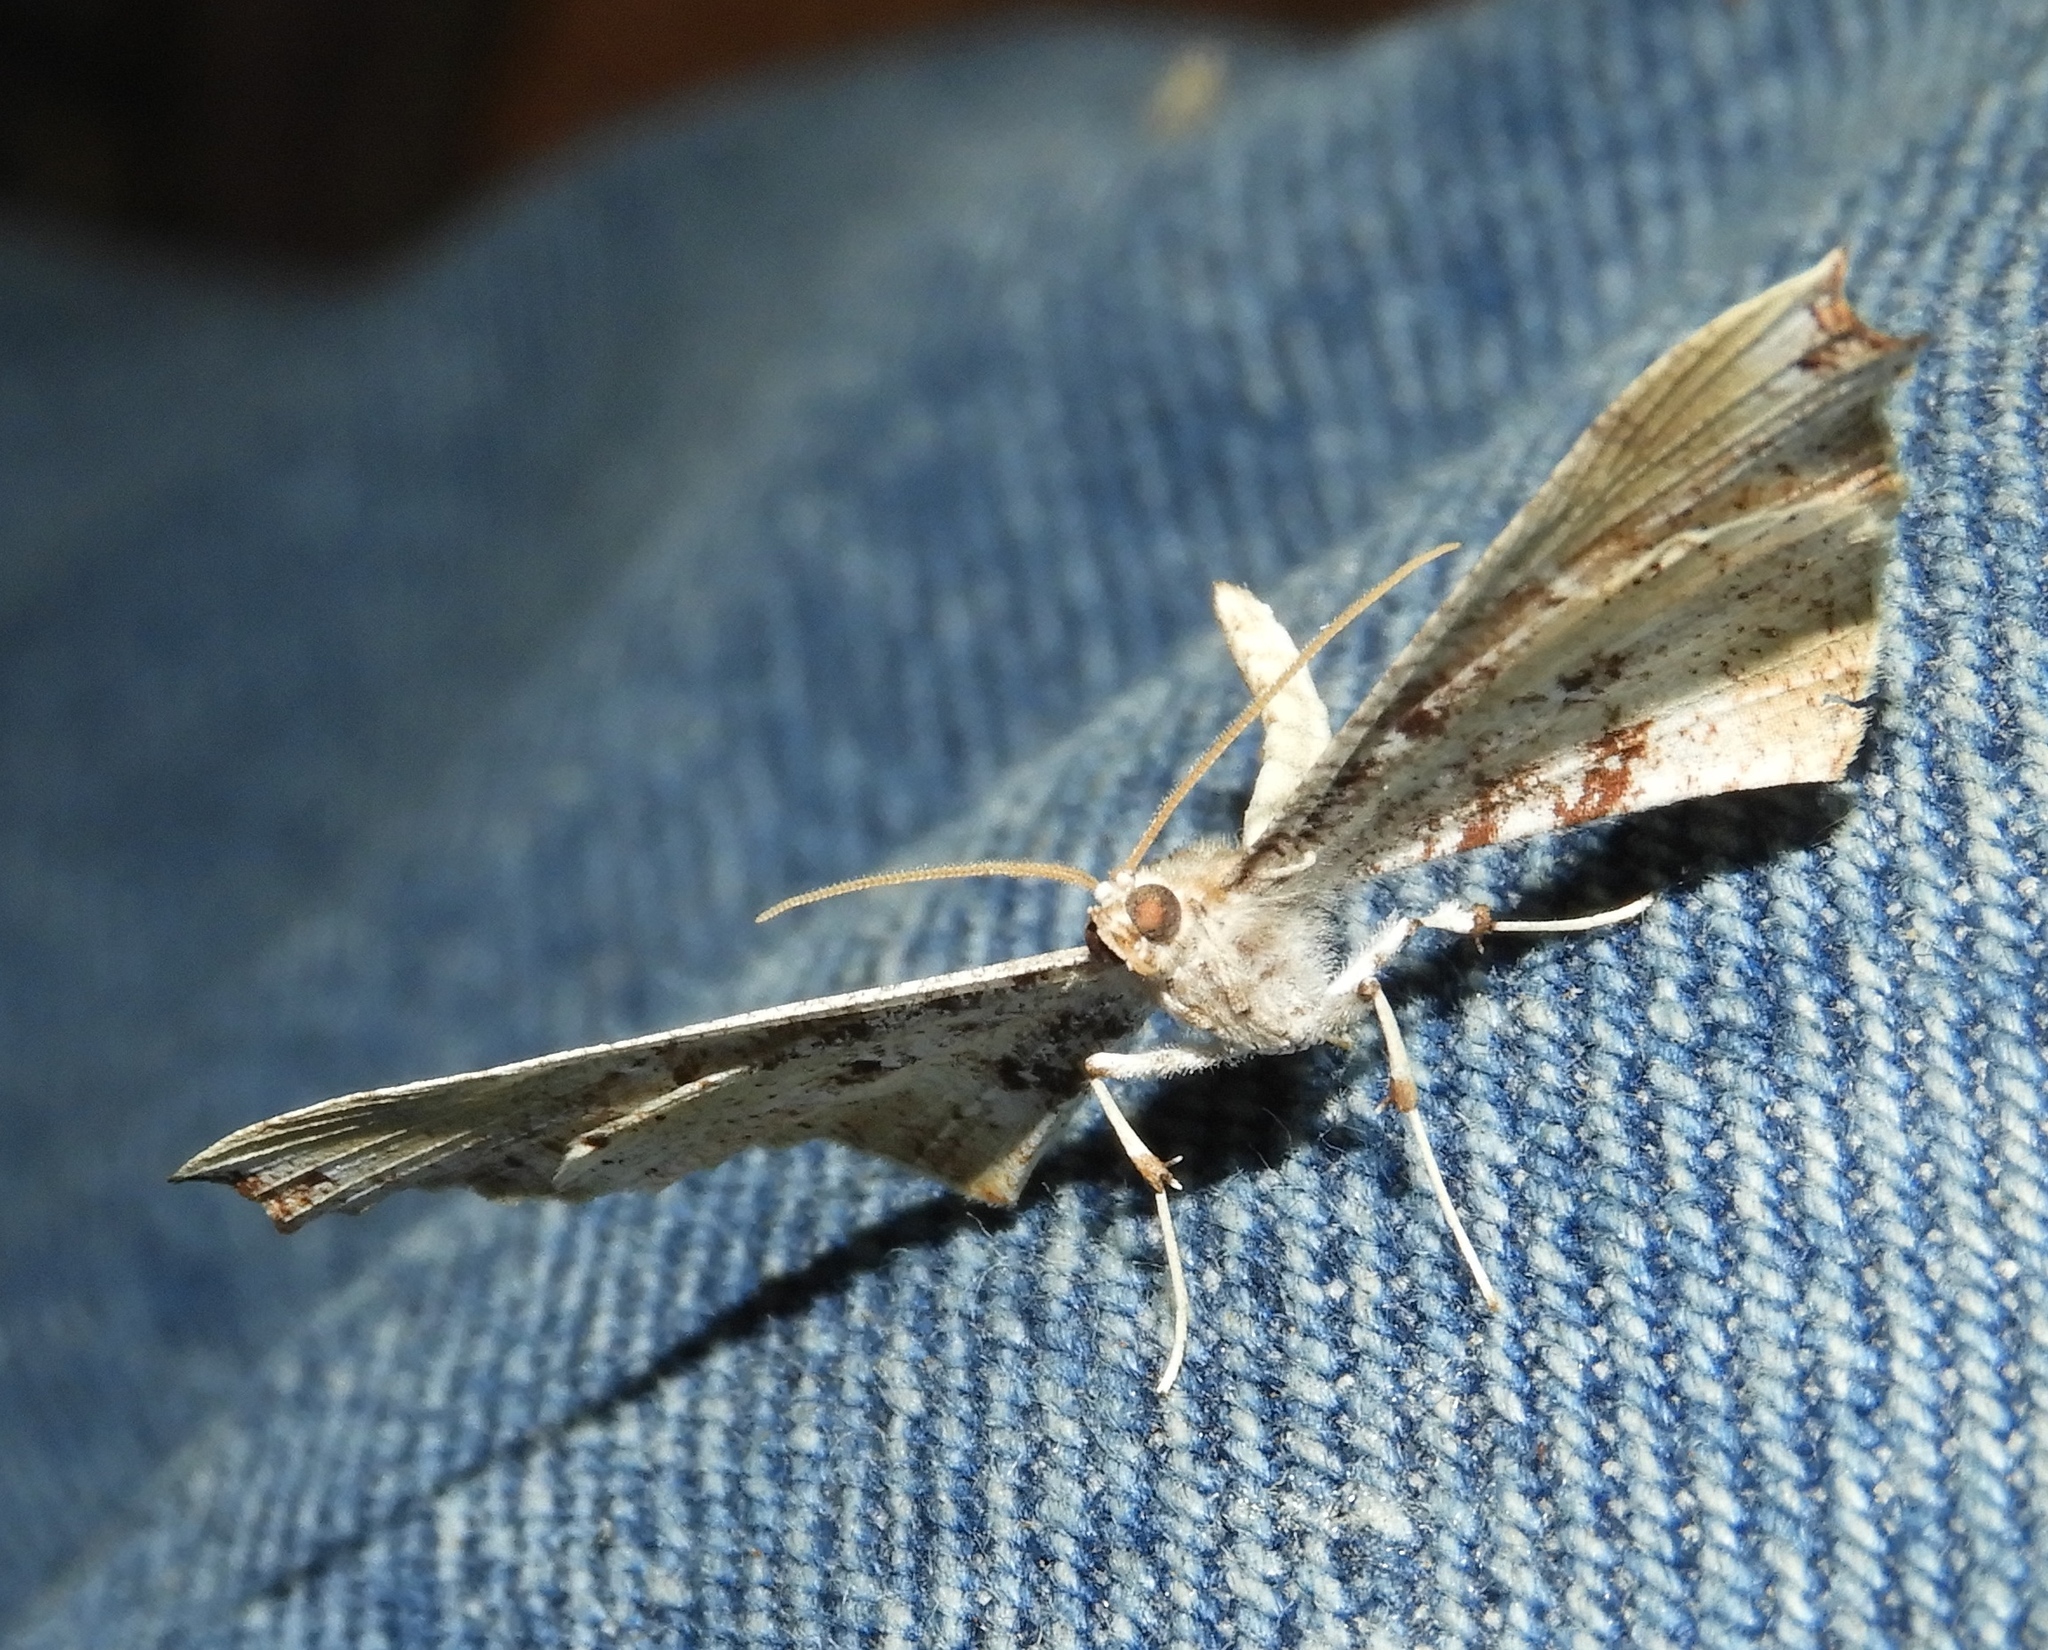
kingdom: Animalia
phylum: Arthropoda
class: Insecta
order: Lepidoptera
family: Hedylidae
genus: Macrosoma
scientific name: Macrosoma
